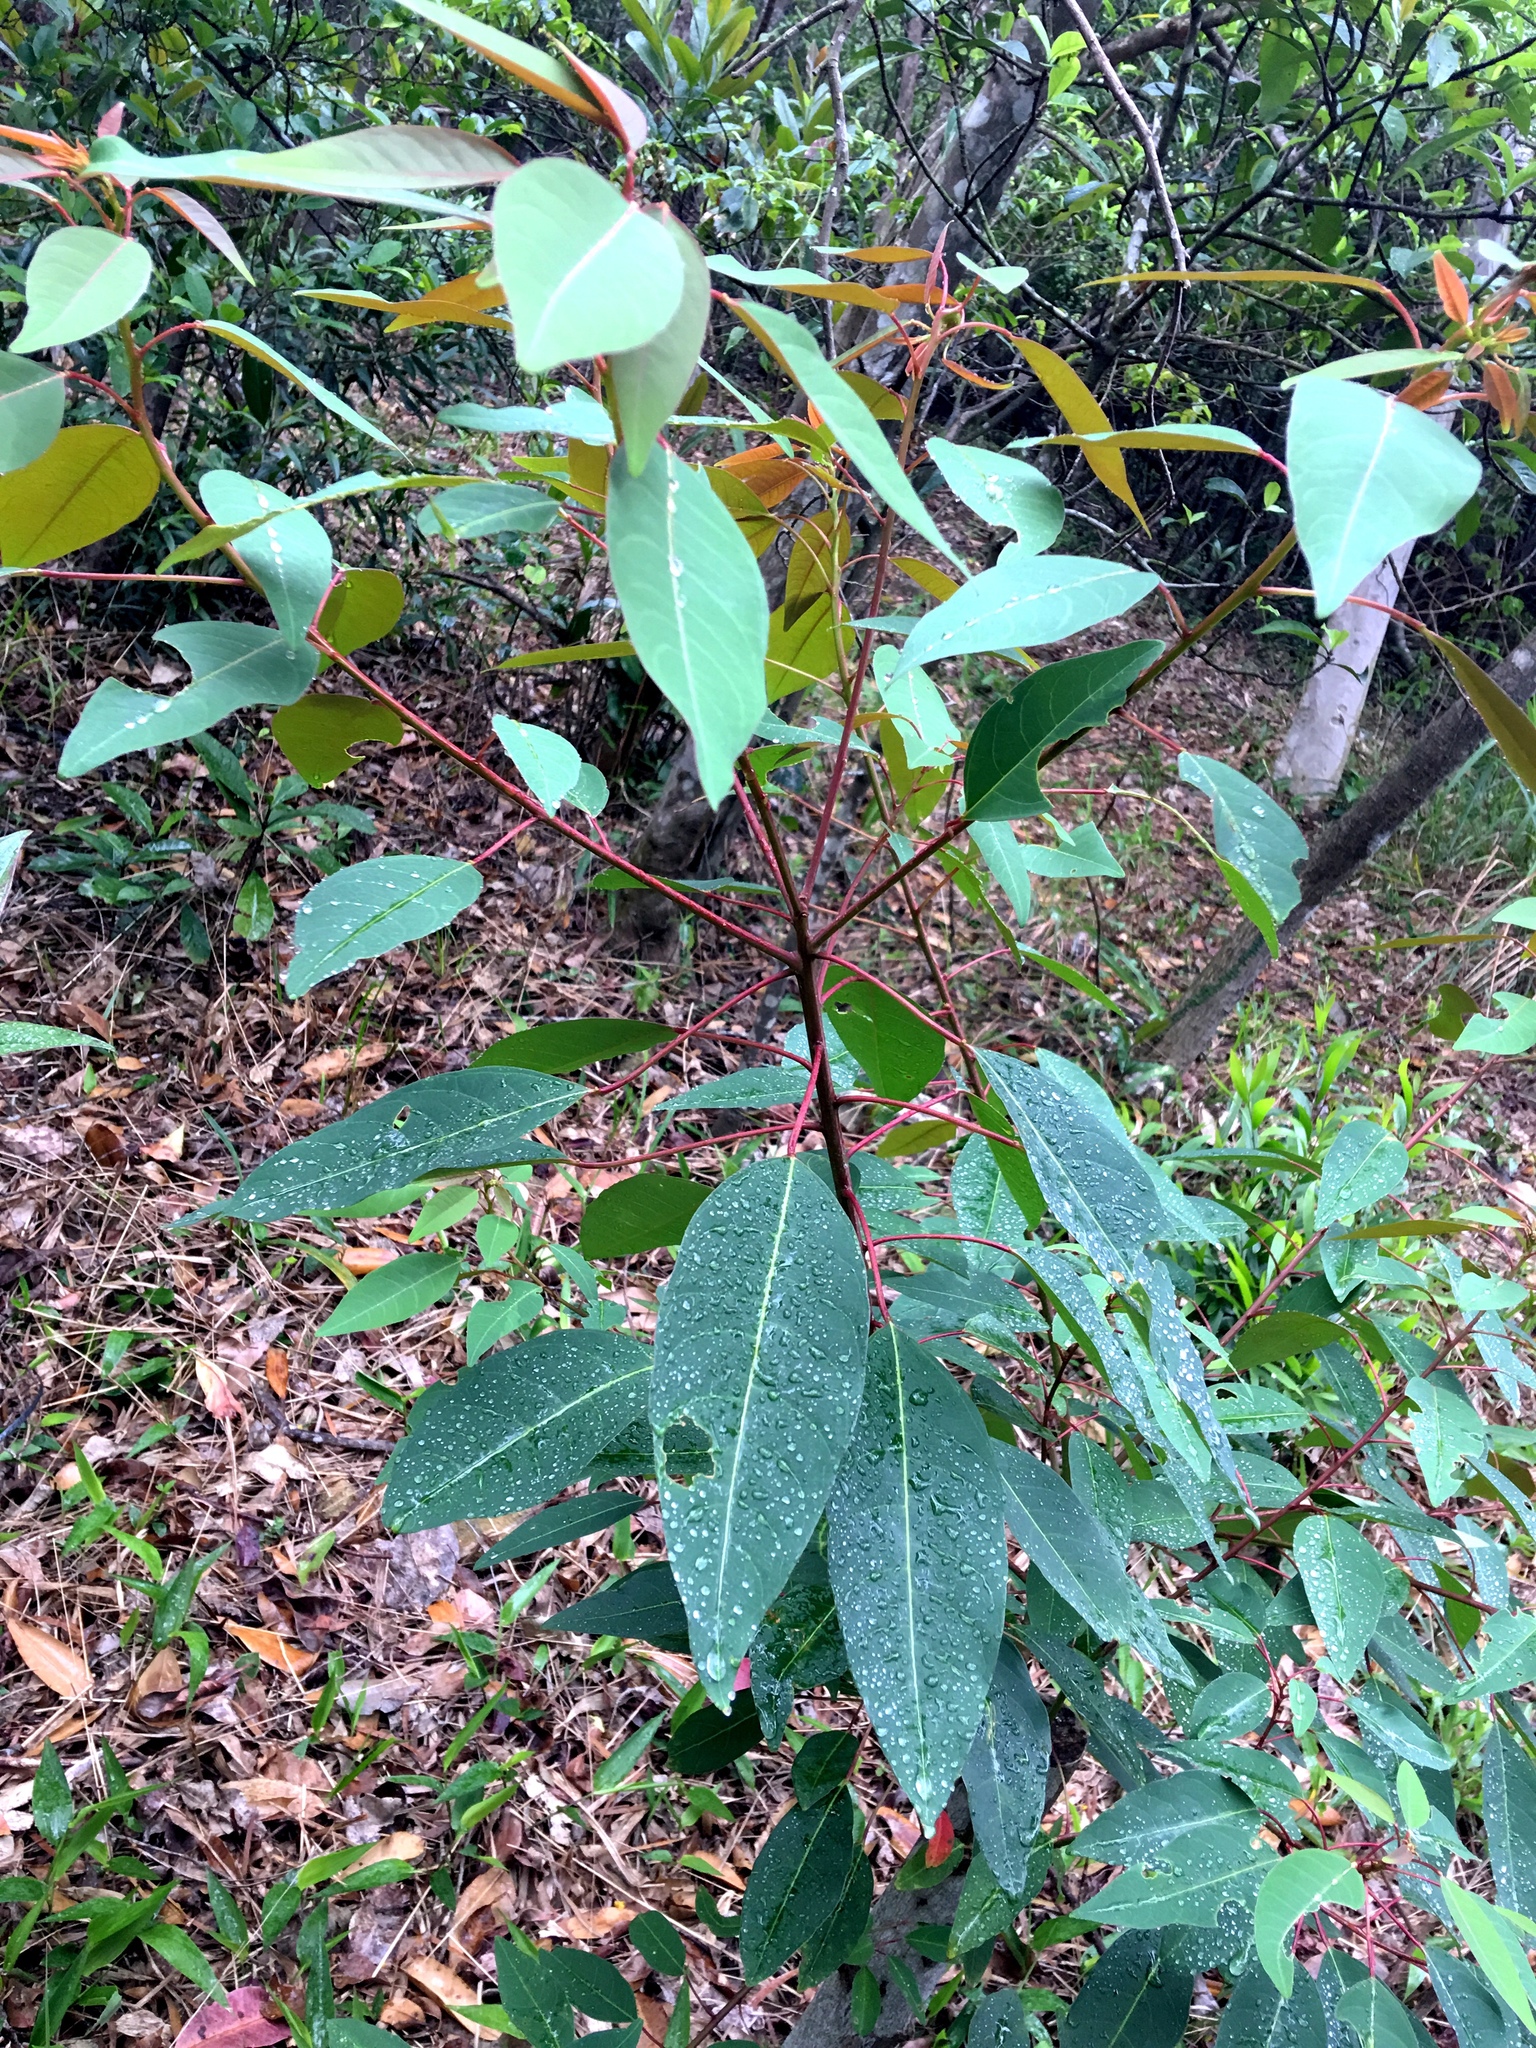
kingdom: Plantae
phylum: Tracheophyta
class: Magnoliopsida
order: Malpighiales
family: Euphorbiaceae
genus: Triadica
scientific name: Triadica cochinchinensis
